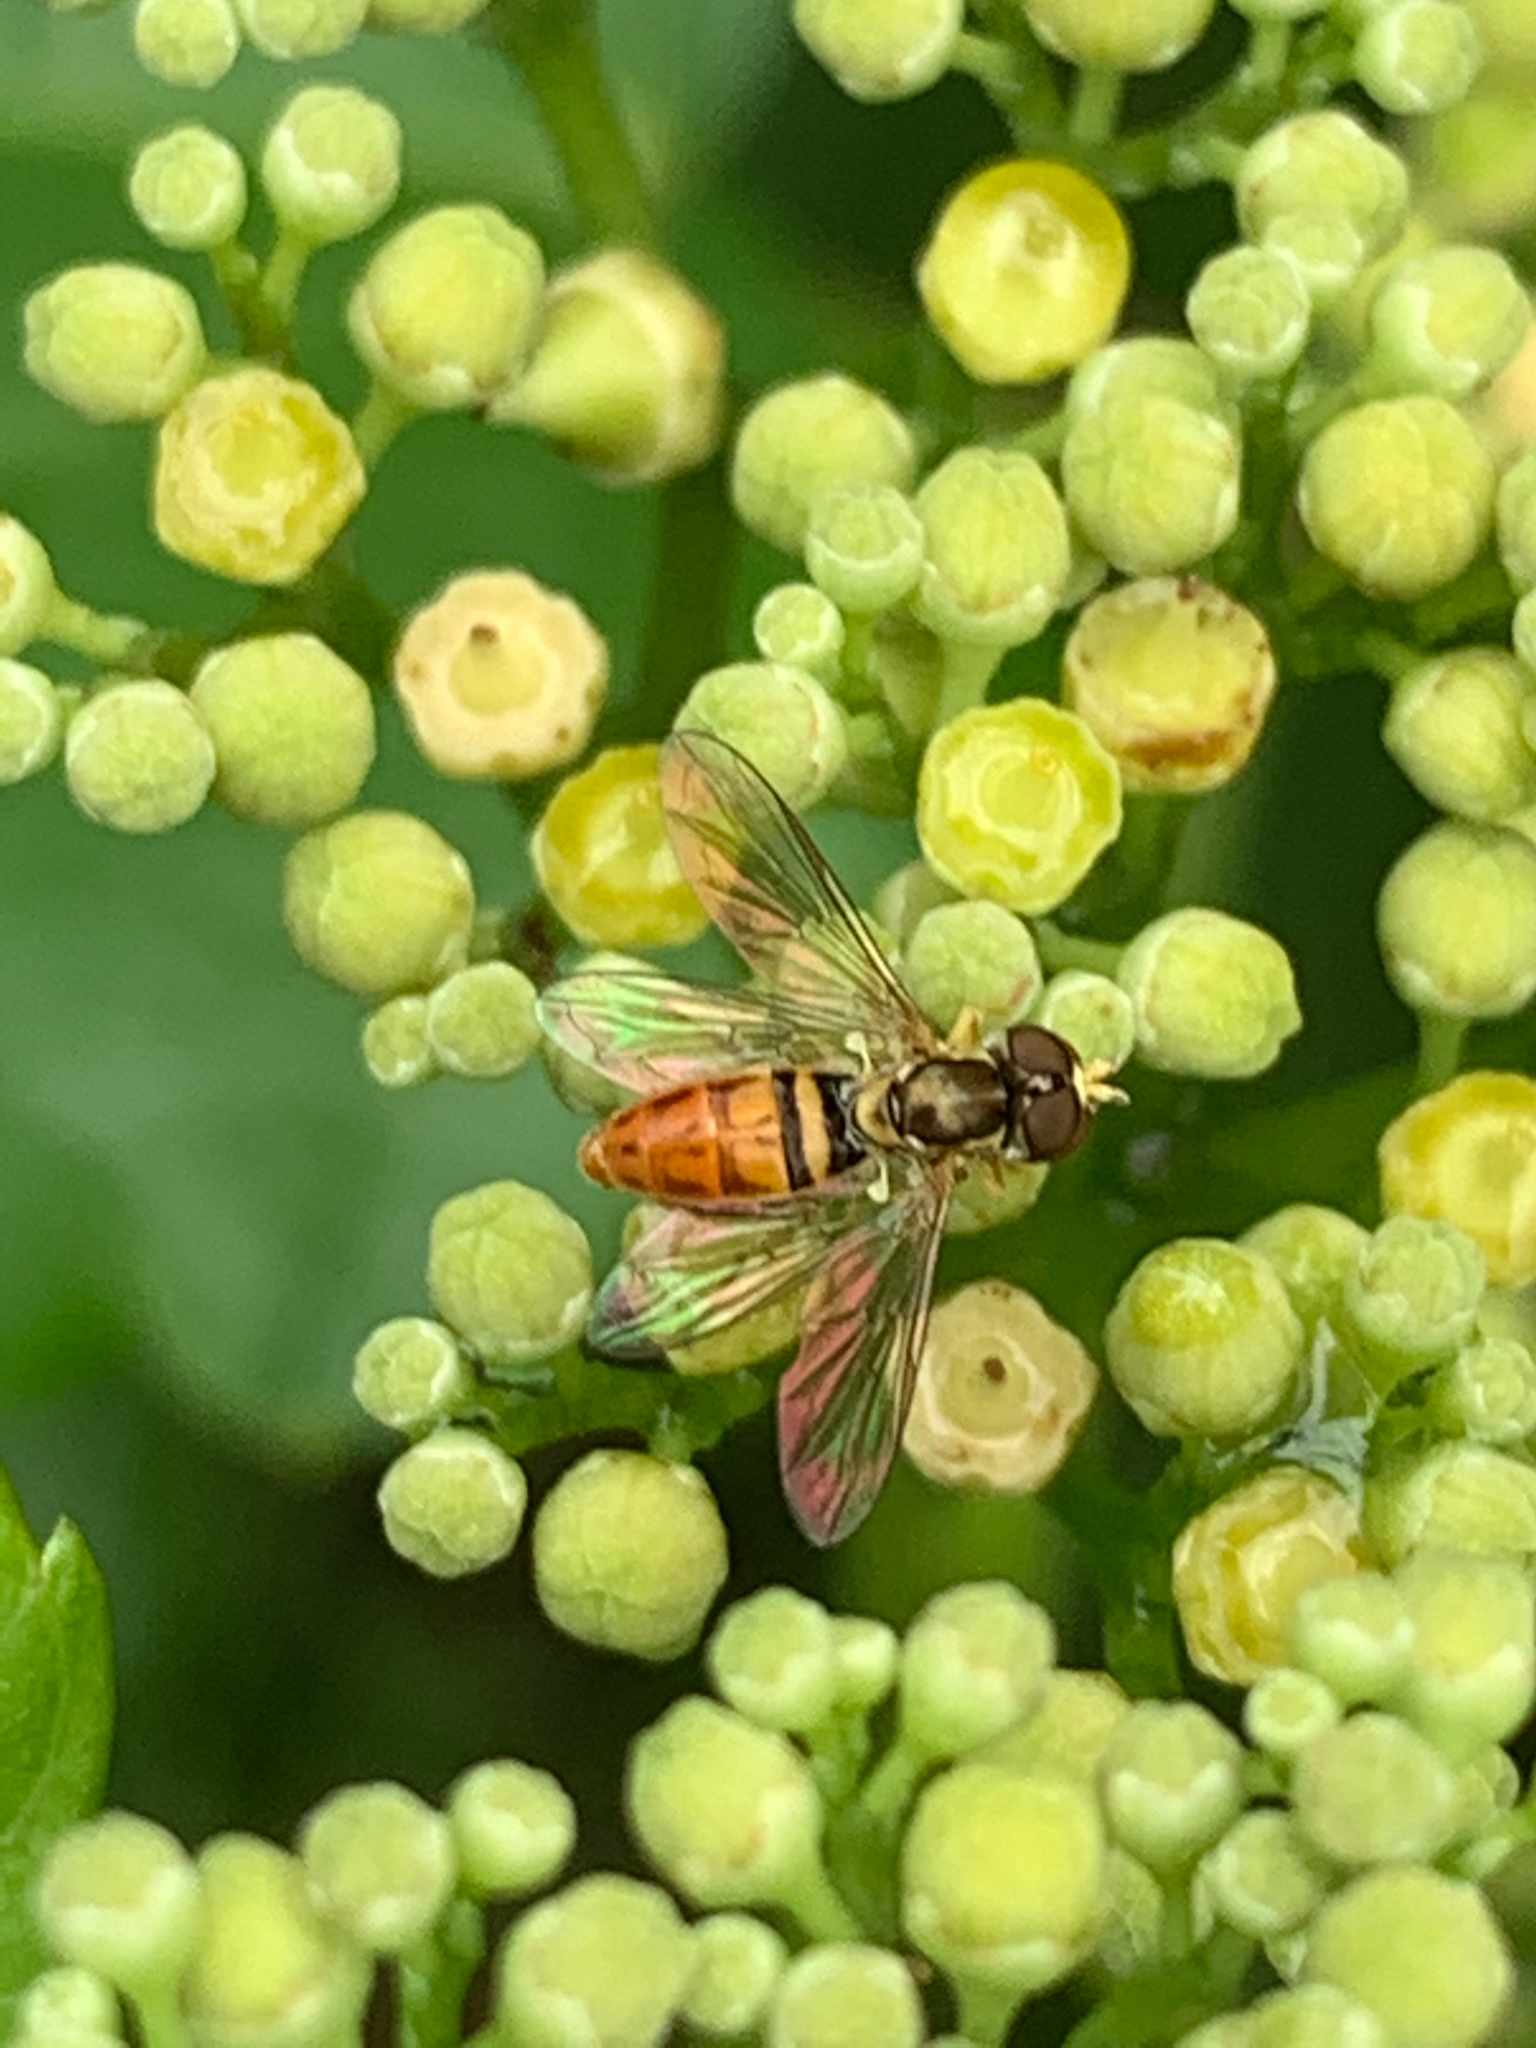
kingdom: Animalia
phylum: Arthropoda
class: Insecta
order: Diptera
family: Syrphidae
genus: Toxomerus
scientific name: Toxomerus marginatus
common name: Syrphid fly
